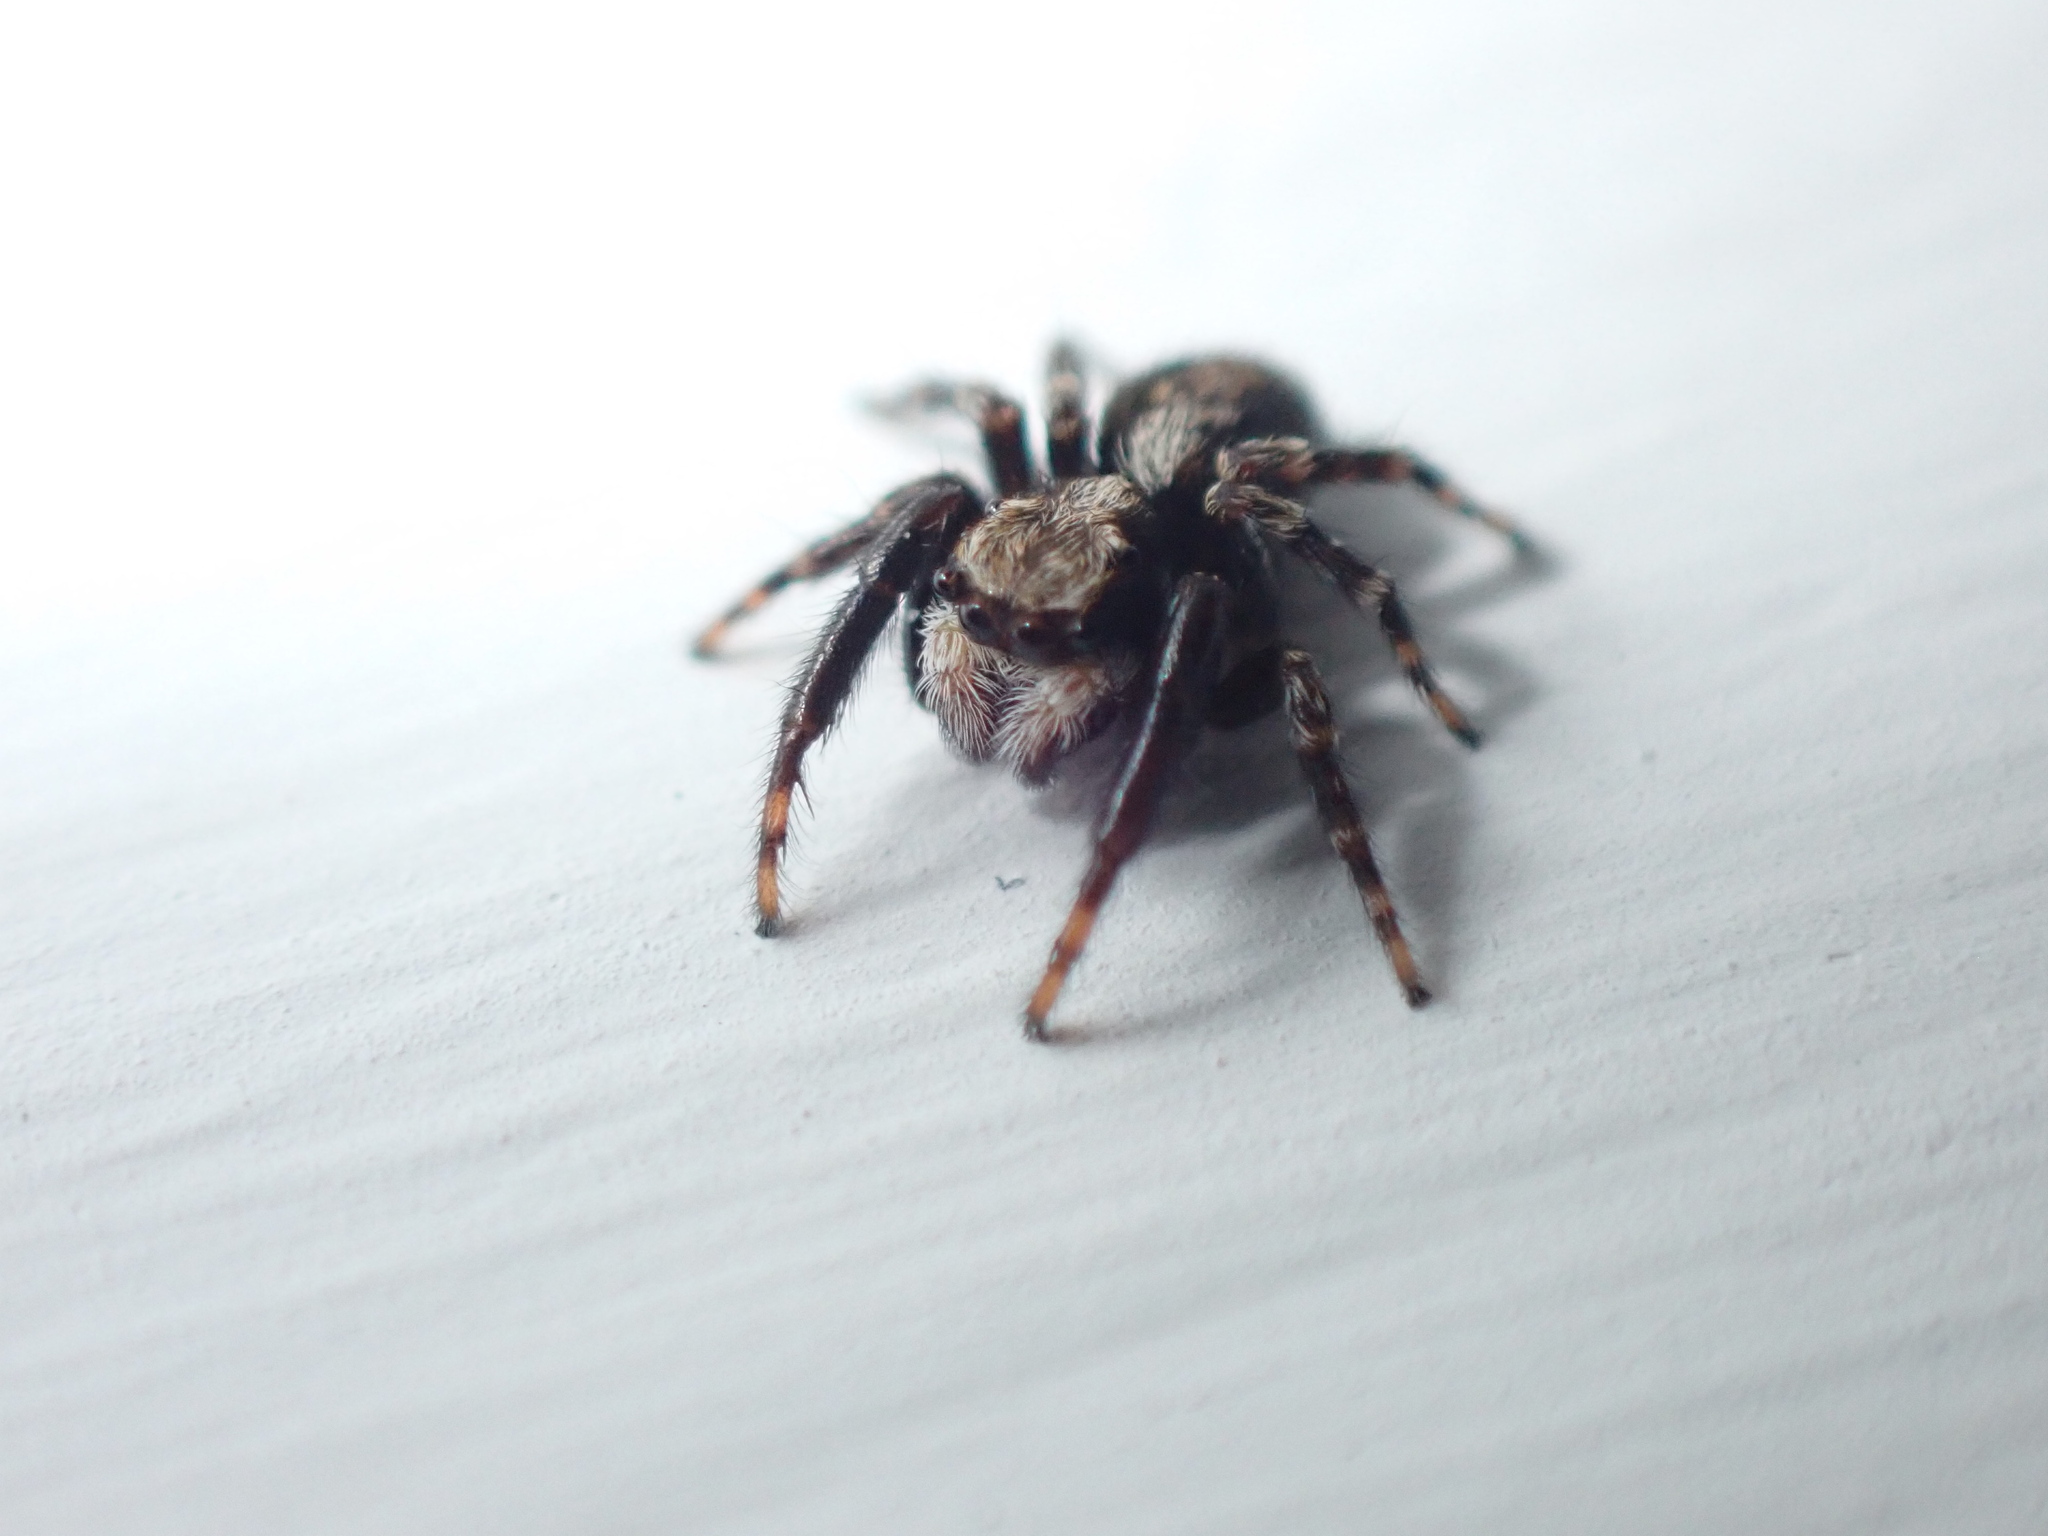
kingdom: Animalia
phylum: Arthropoda
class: Arachnida
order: Araneae
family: Salticidae
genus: Pseudeuophrys
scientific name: Pseudeuophrys lanigera
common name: Jumping spider
